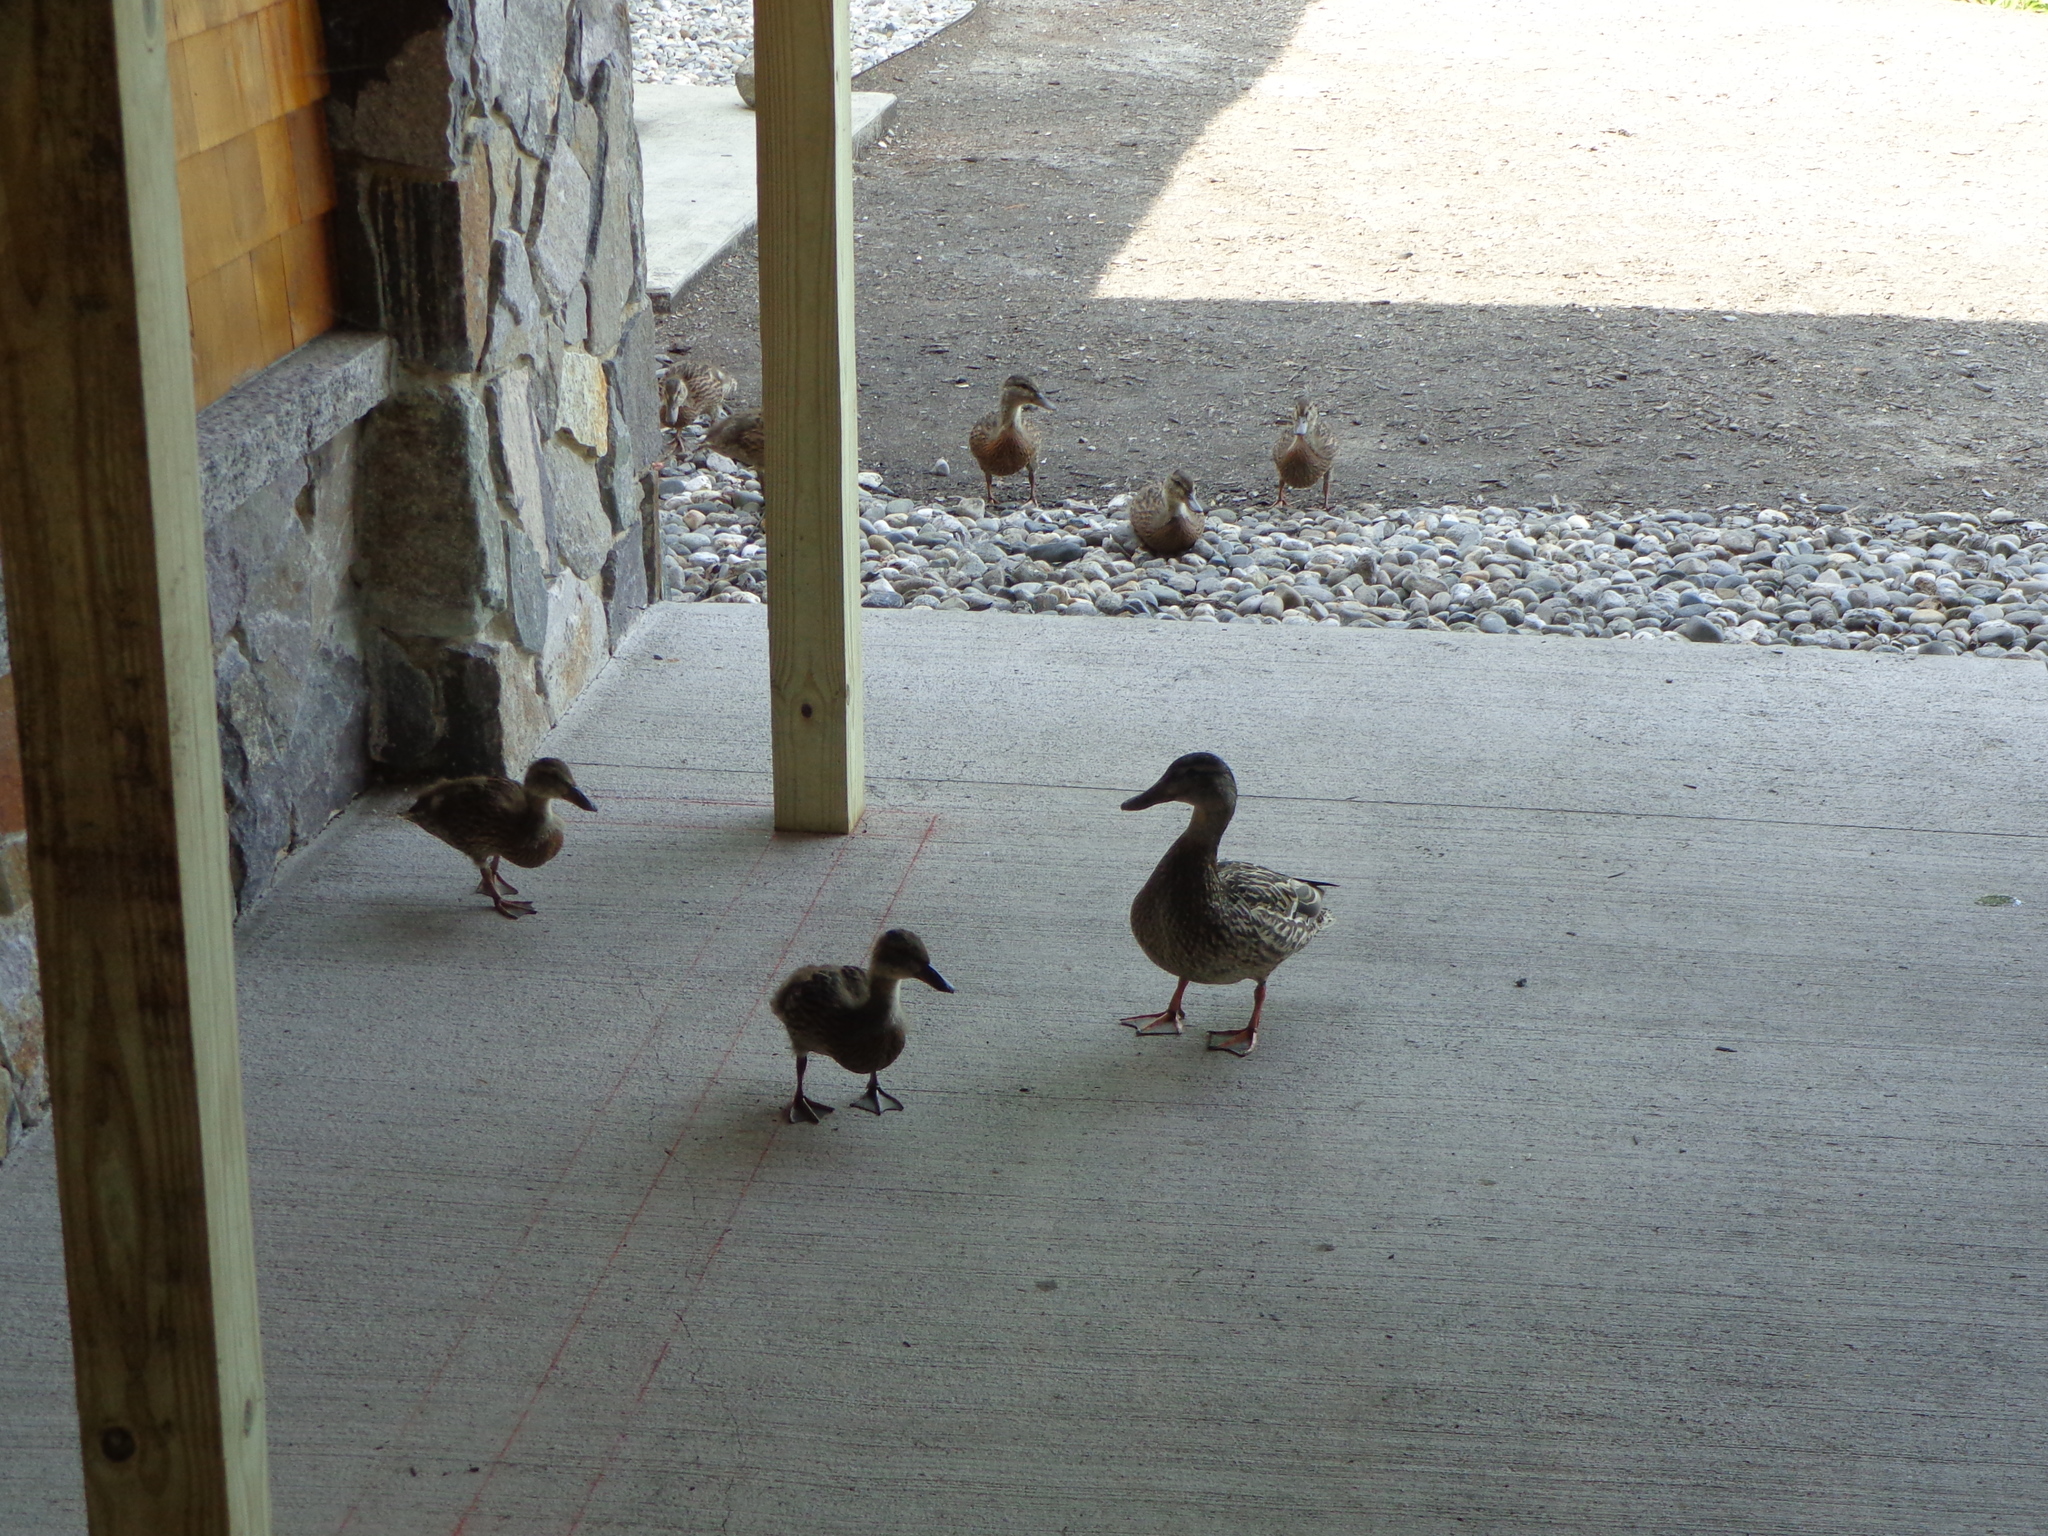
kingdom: Animalia
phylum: Chordata
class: Aves
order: Anseriformes
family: Anatidae
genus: Anas
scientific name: Anas platyrhynchos
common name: Mallard
